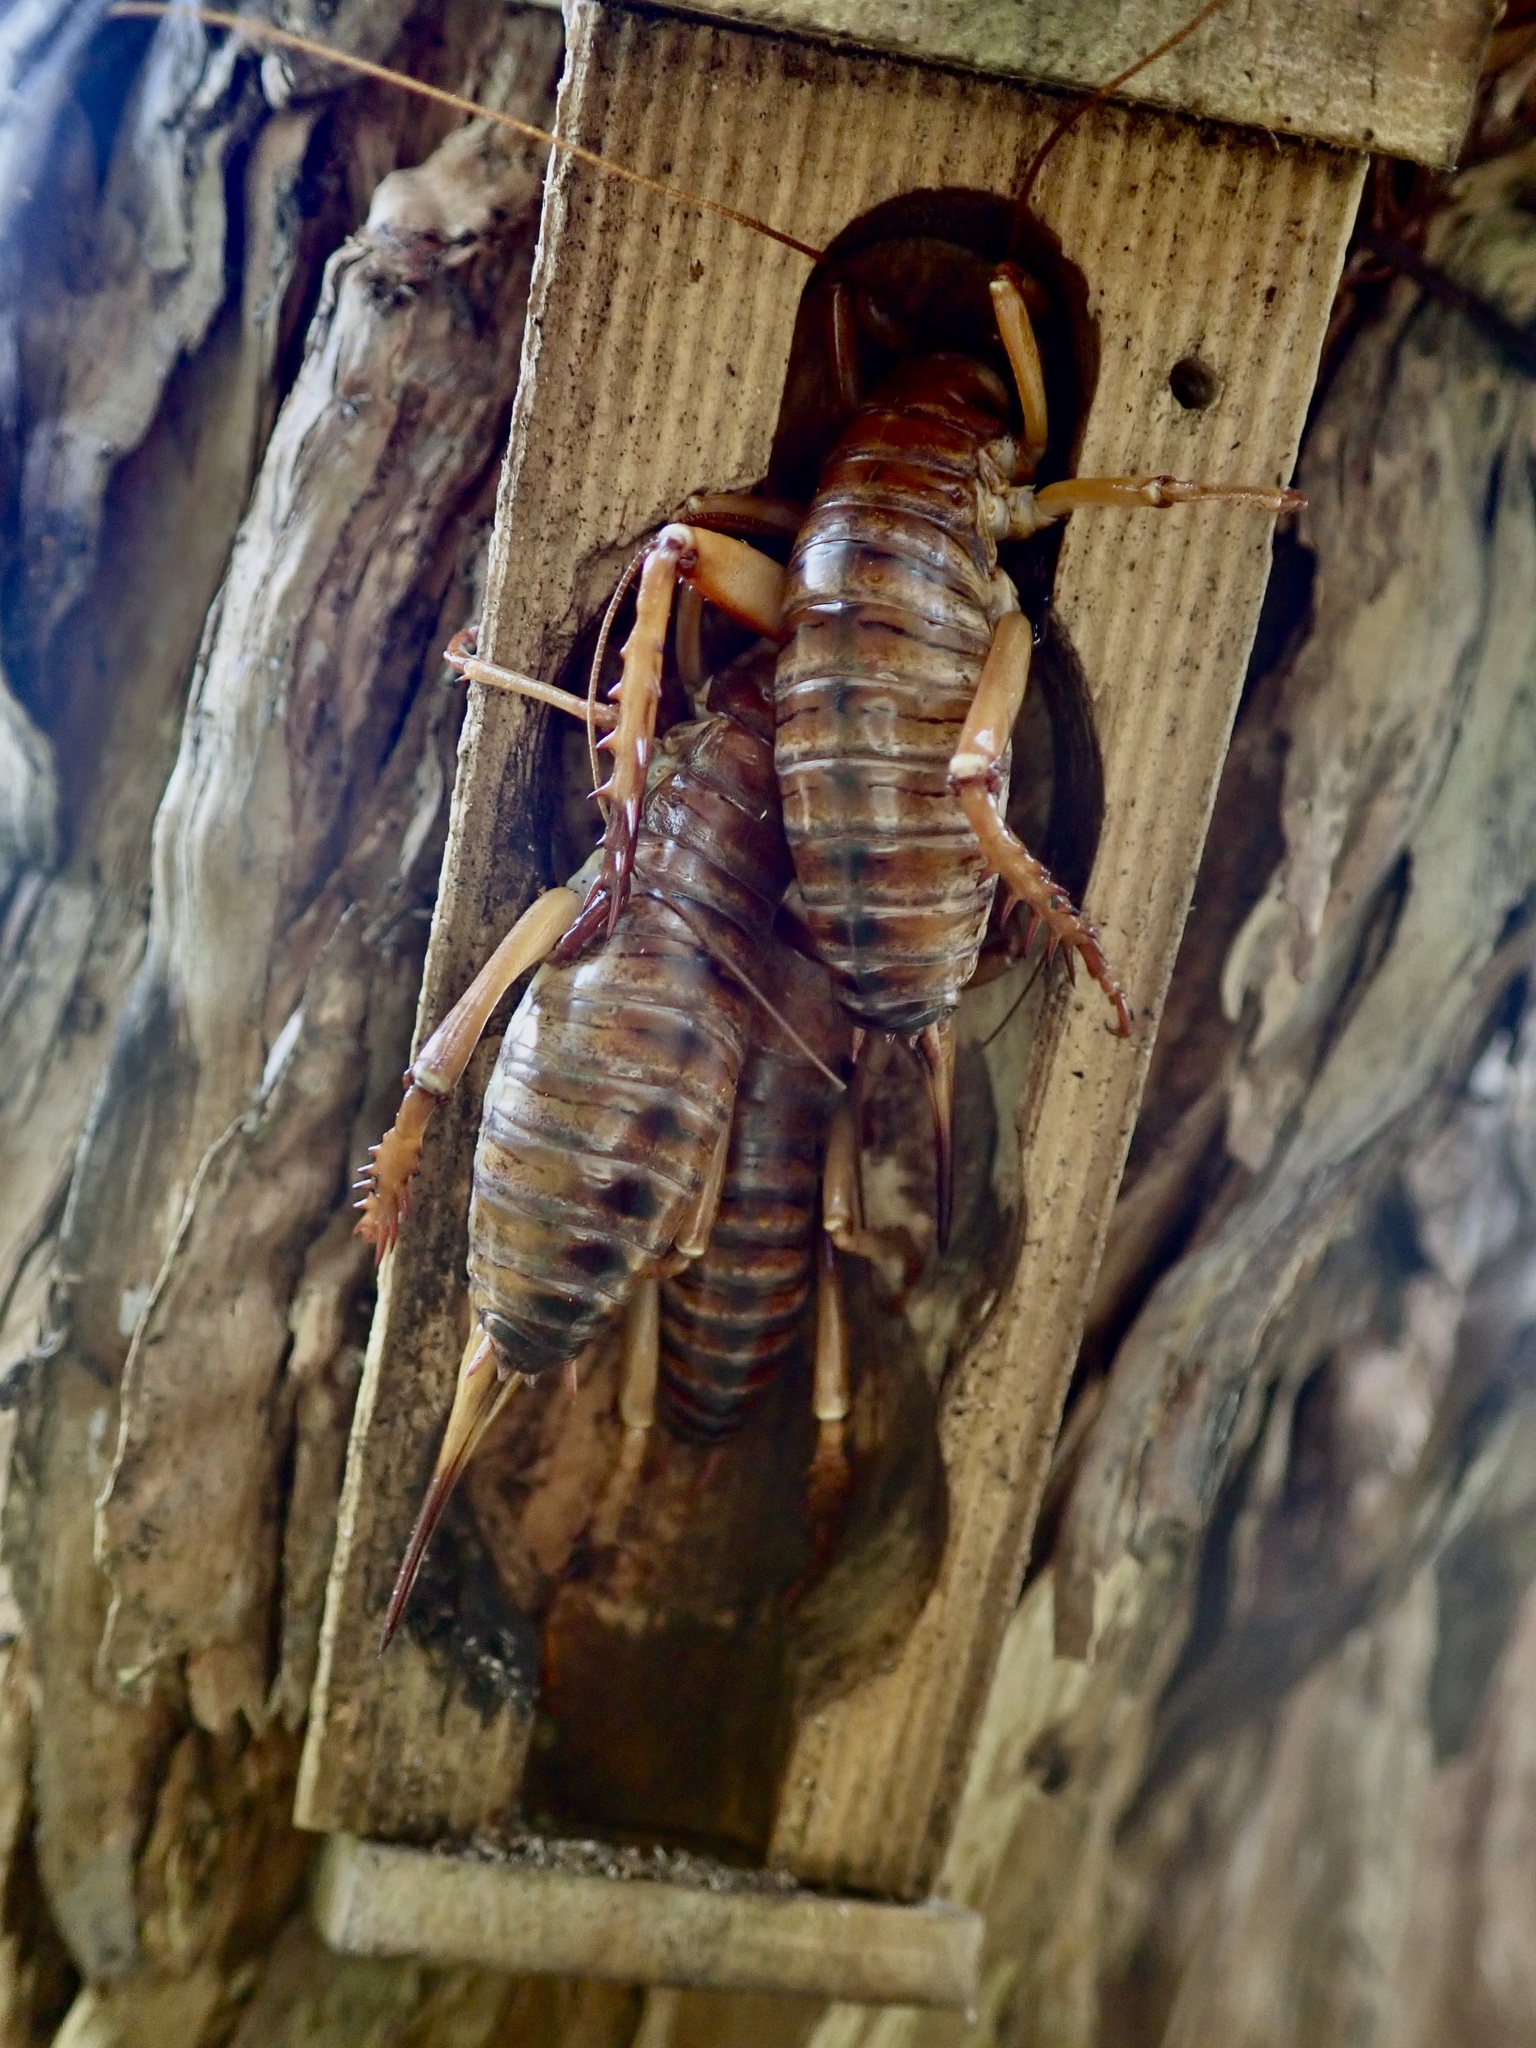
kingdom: Animalia
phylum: Arthropoda
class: Insecta
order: Orthoptera
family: Anostostomatidae
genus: Hemideina
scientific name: Hemideina ricta
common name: Banks peninsula tree weta
